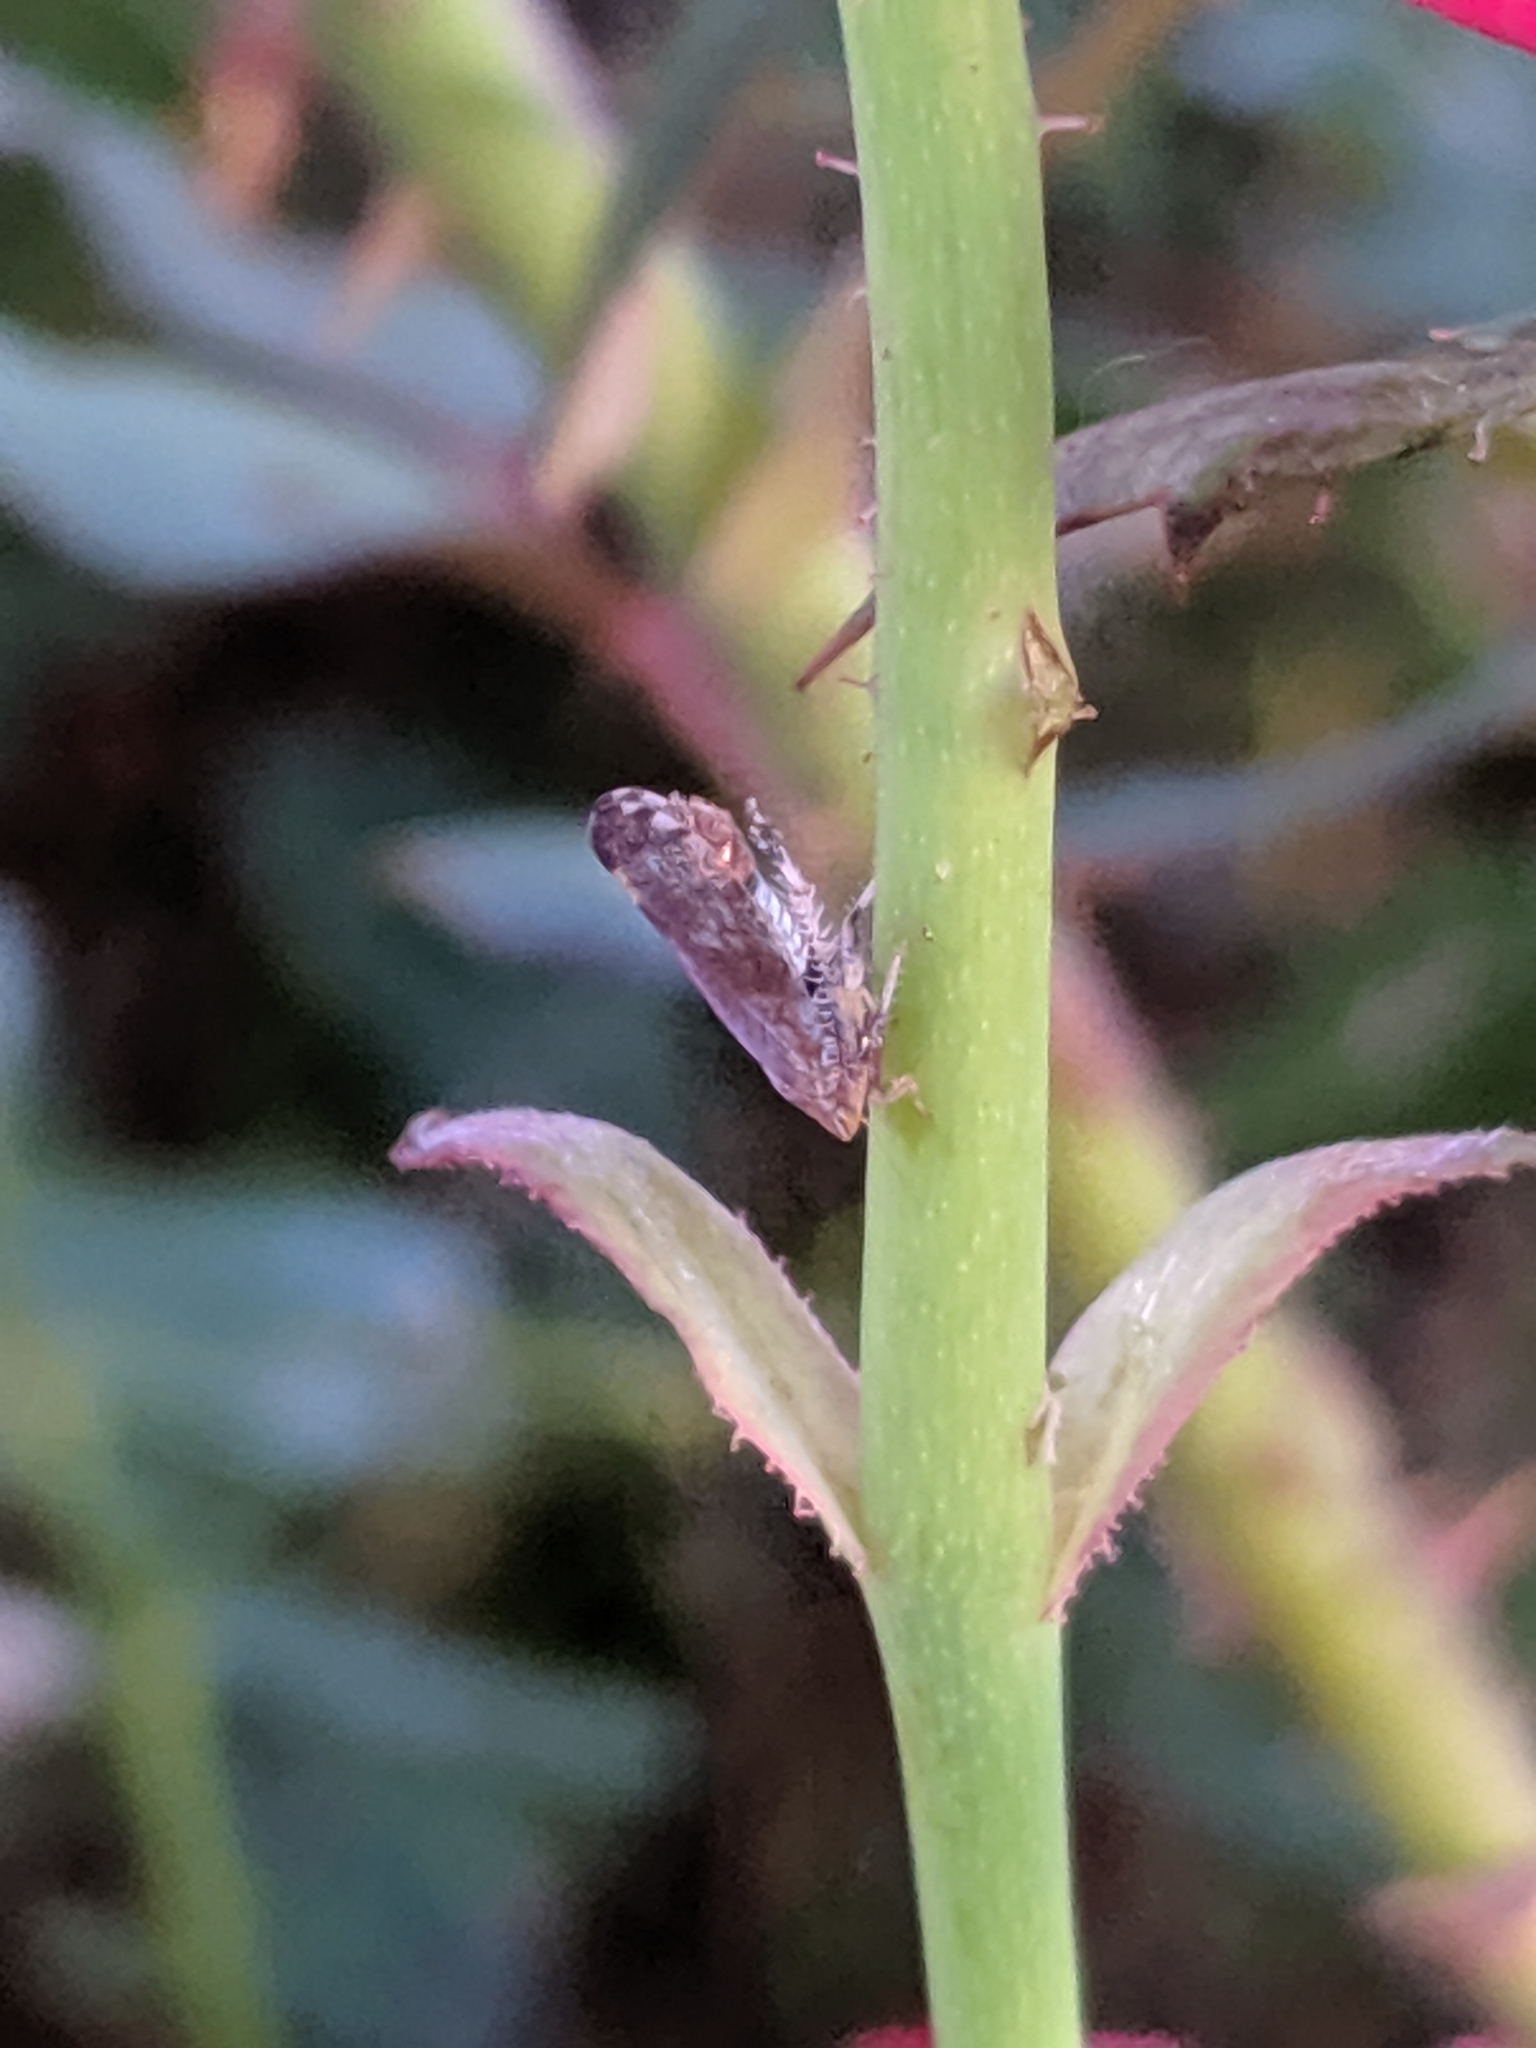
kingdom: Animalia
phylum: Arthropoda
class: Insecta
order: Hemiptera
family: Cicadellidae
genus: Fieberiella
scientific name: Fieberiella florii
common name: Flor’s leafhopper
